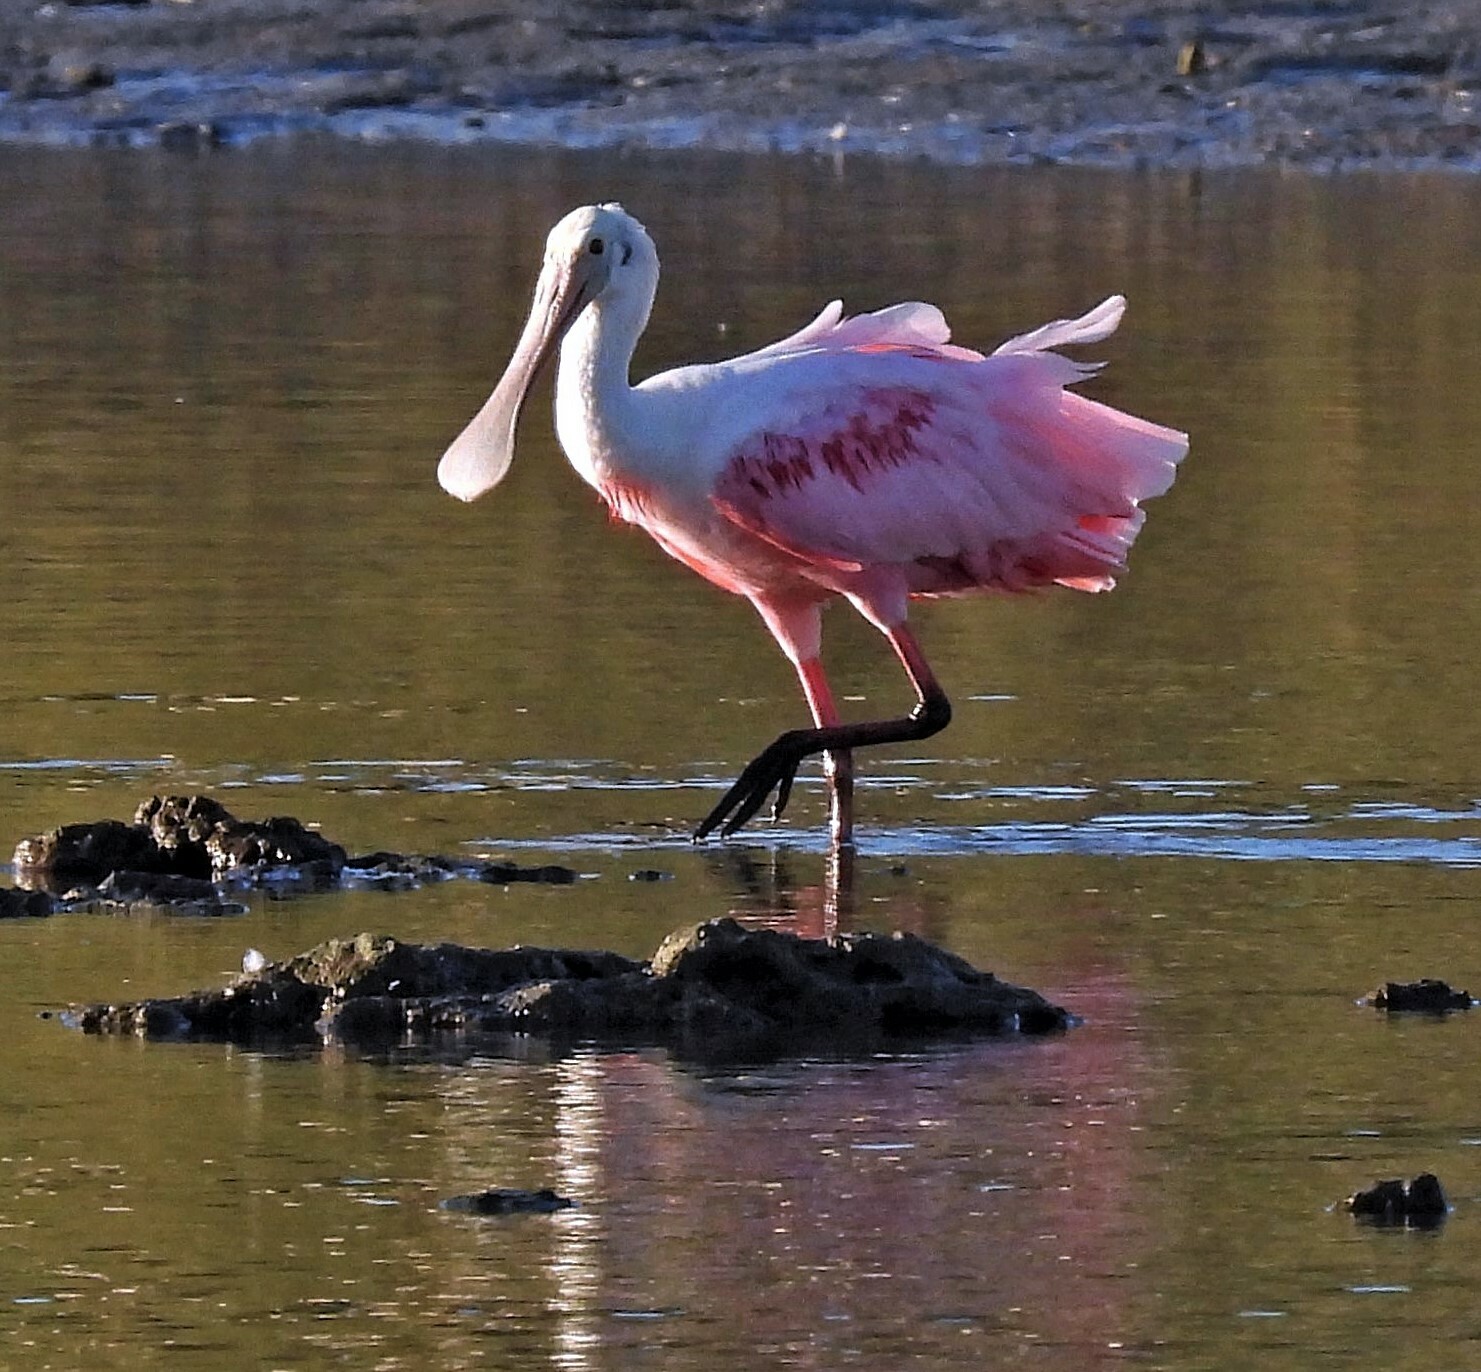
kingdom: Animalia
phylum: Chordata
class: Aves
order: Pelecaniformes
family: Threskiornithidae
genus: Platalea
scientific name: Platalea ajaja
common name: Roseate spoonbill
